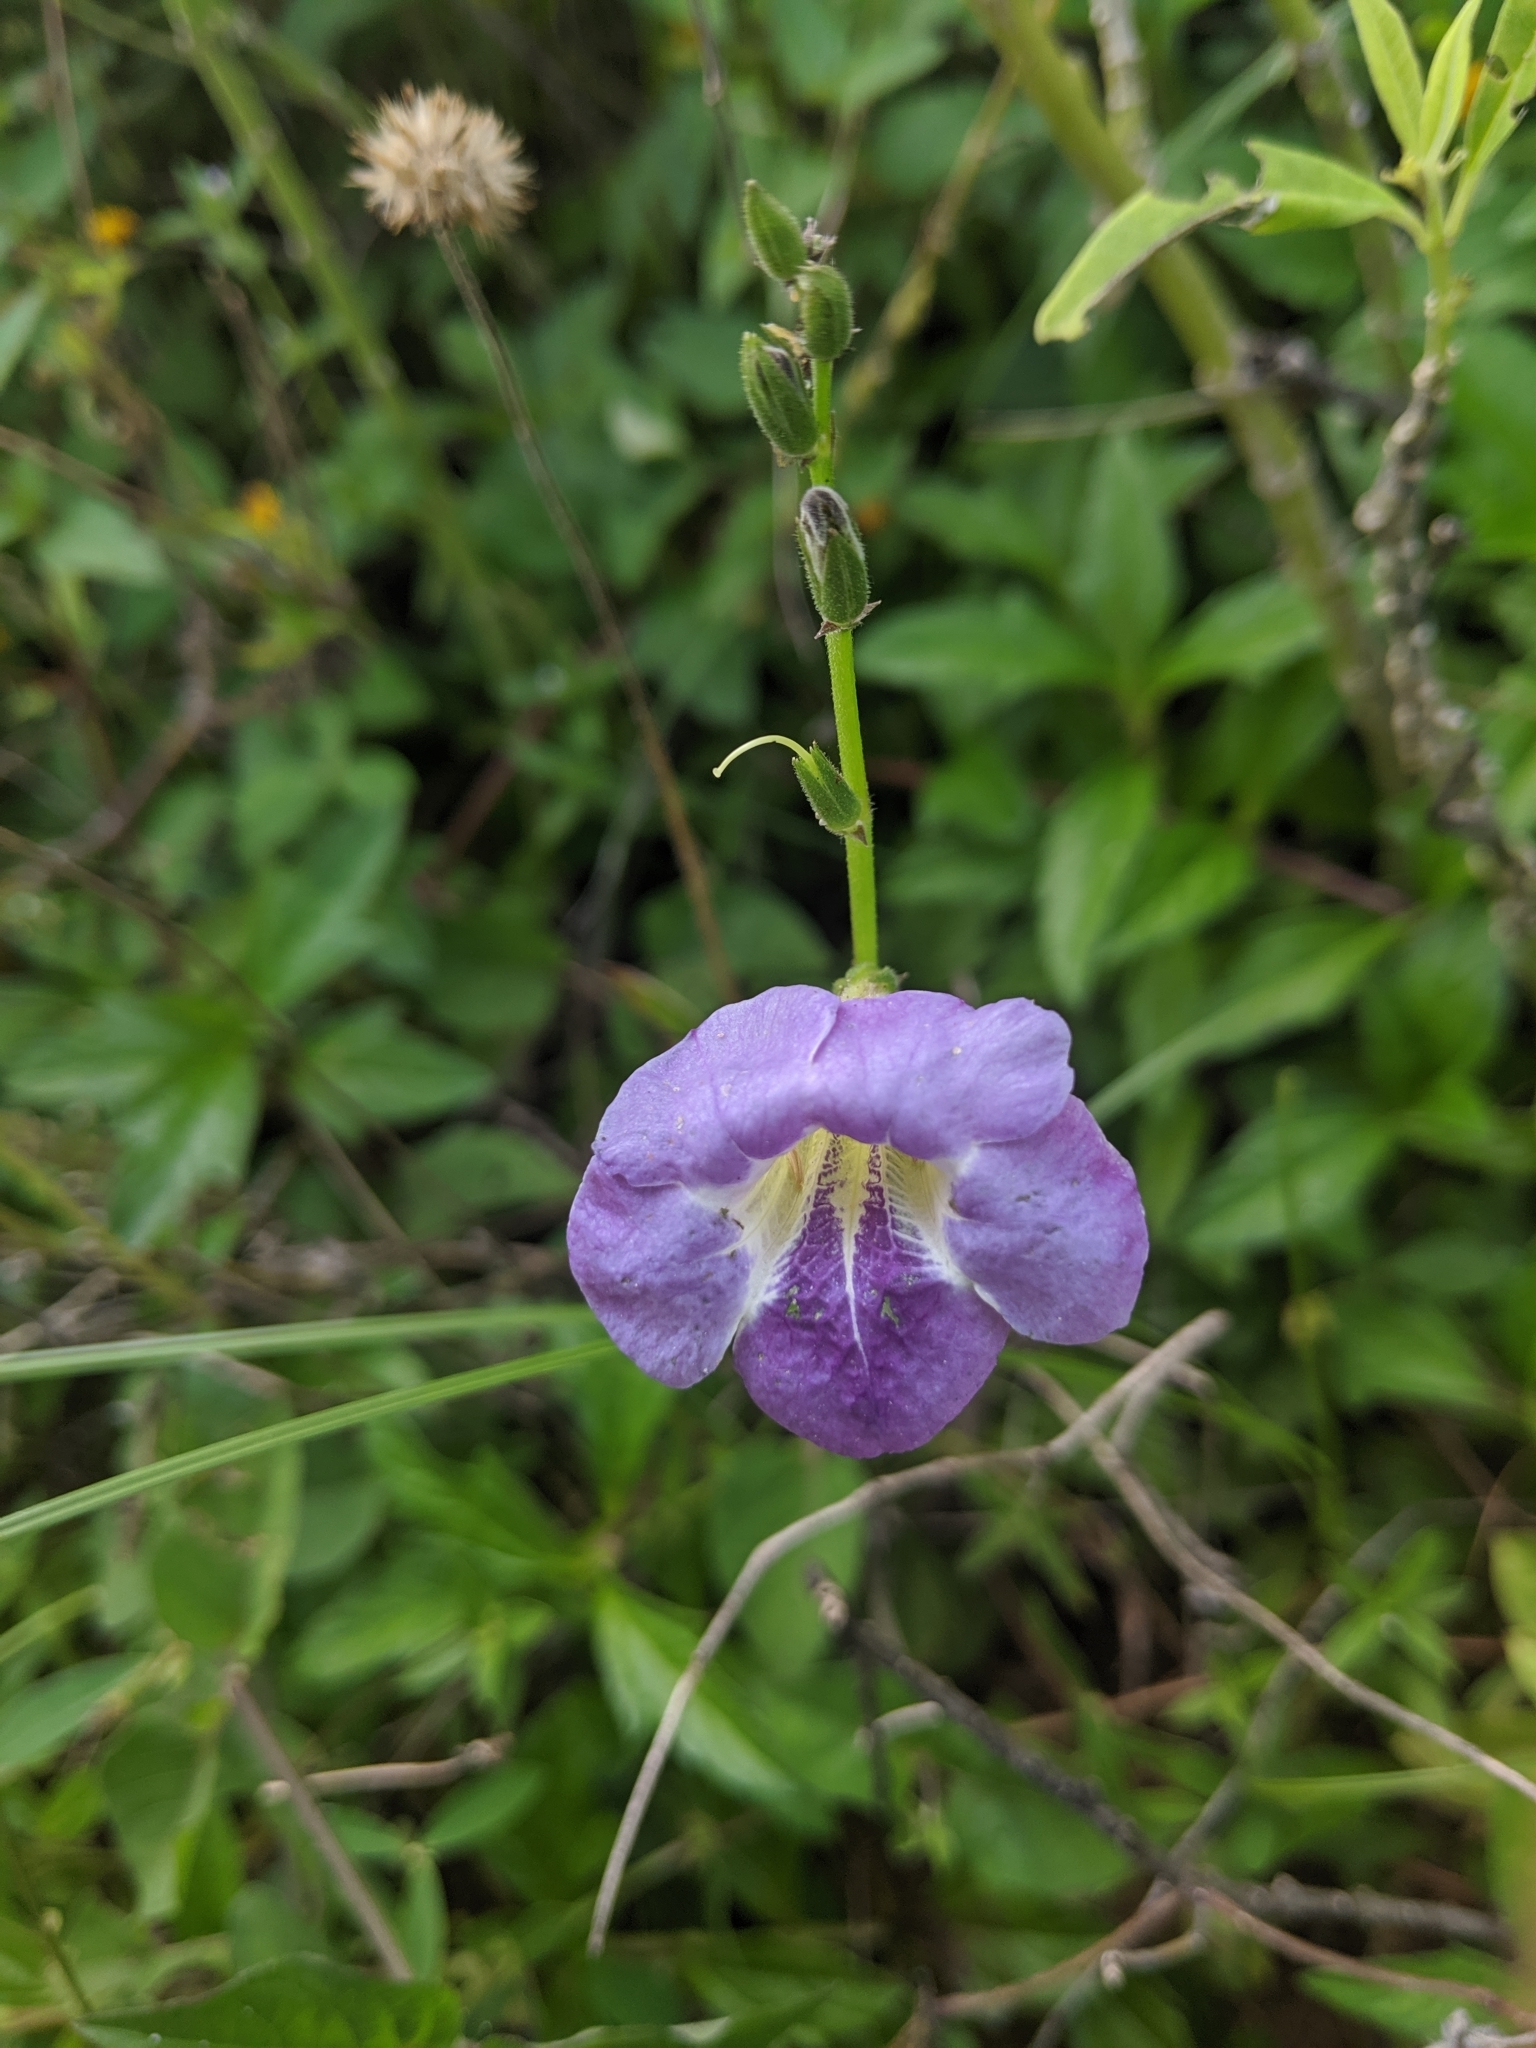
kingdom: Plantae
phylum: Tracheophyta
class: Magnoliopsida
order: Lamiales
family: Acanthaceae
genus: Asystasia
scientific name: Asystasia gangetica
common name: Chinese violet
